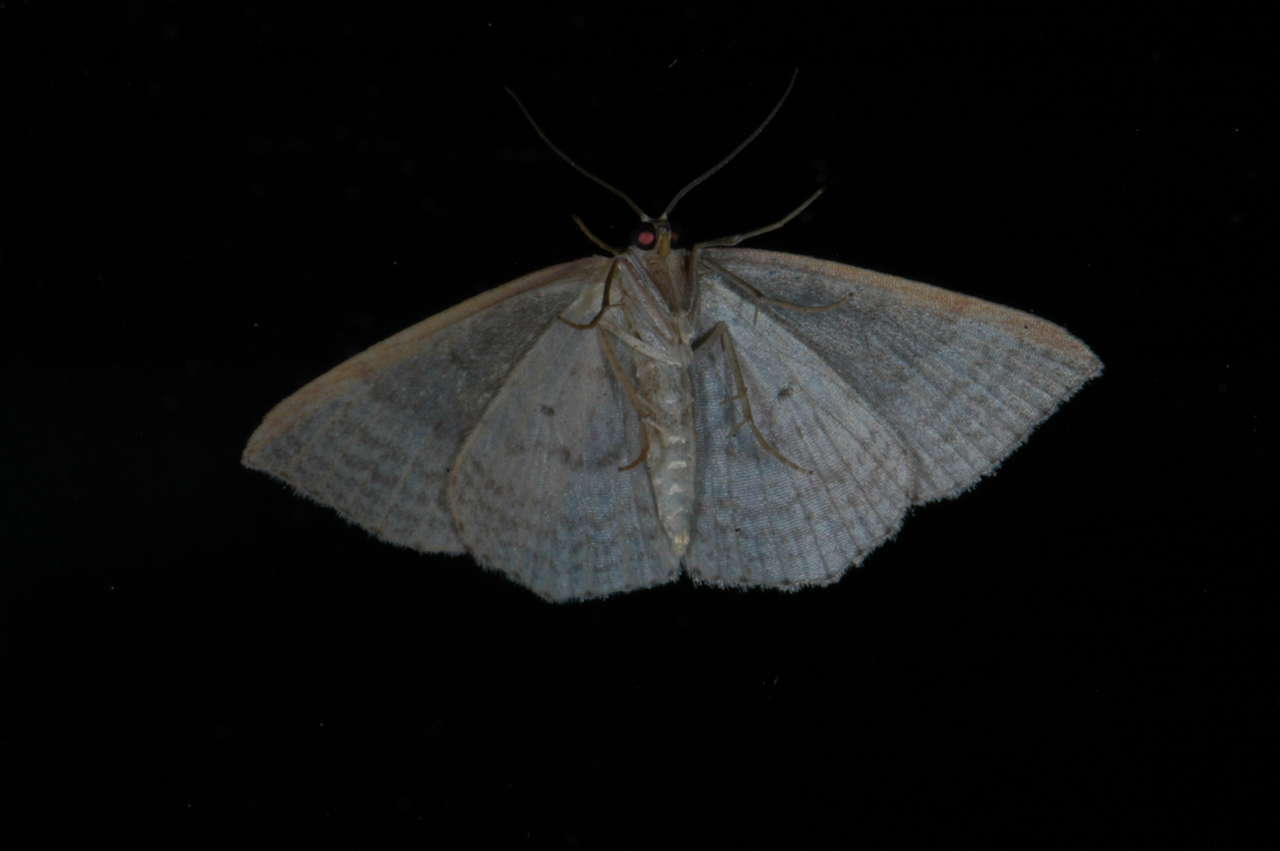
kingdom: Animalia
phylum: Arthropoda
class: Insecta
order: Lepidoptera
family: Geometridae
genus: Epicyme
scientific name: Epicyme rubropunctaria
